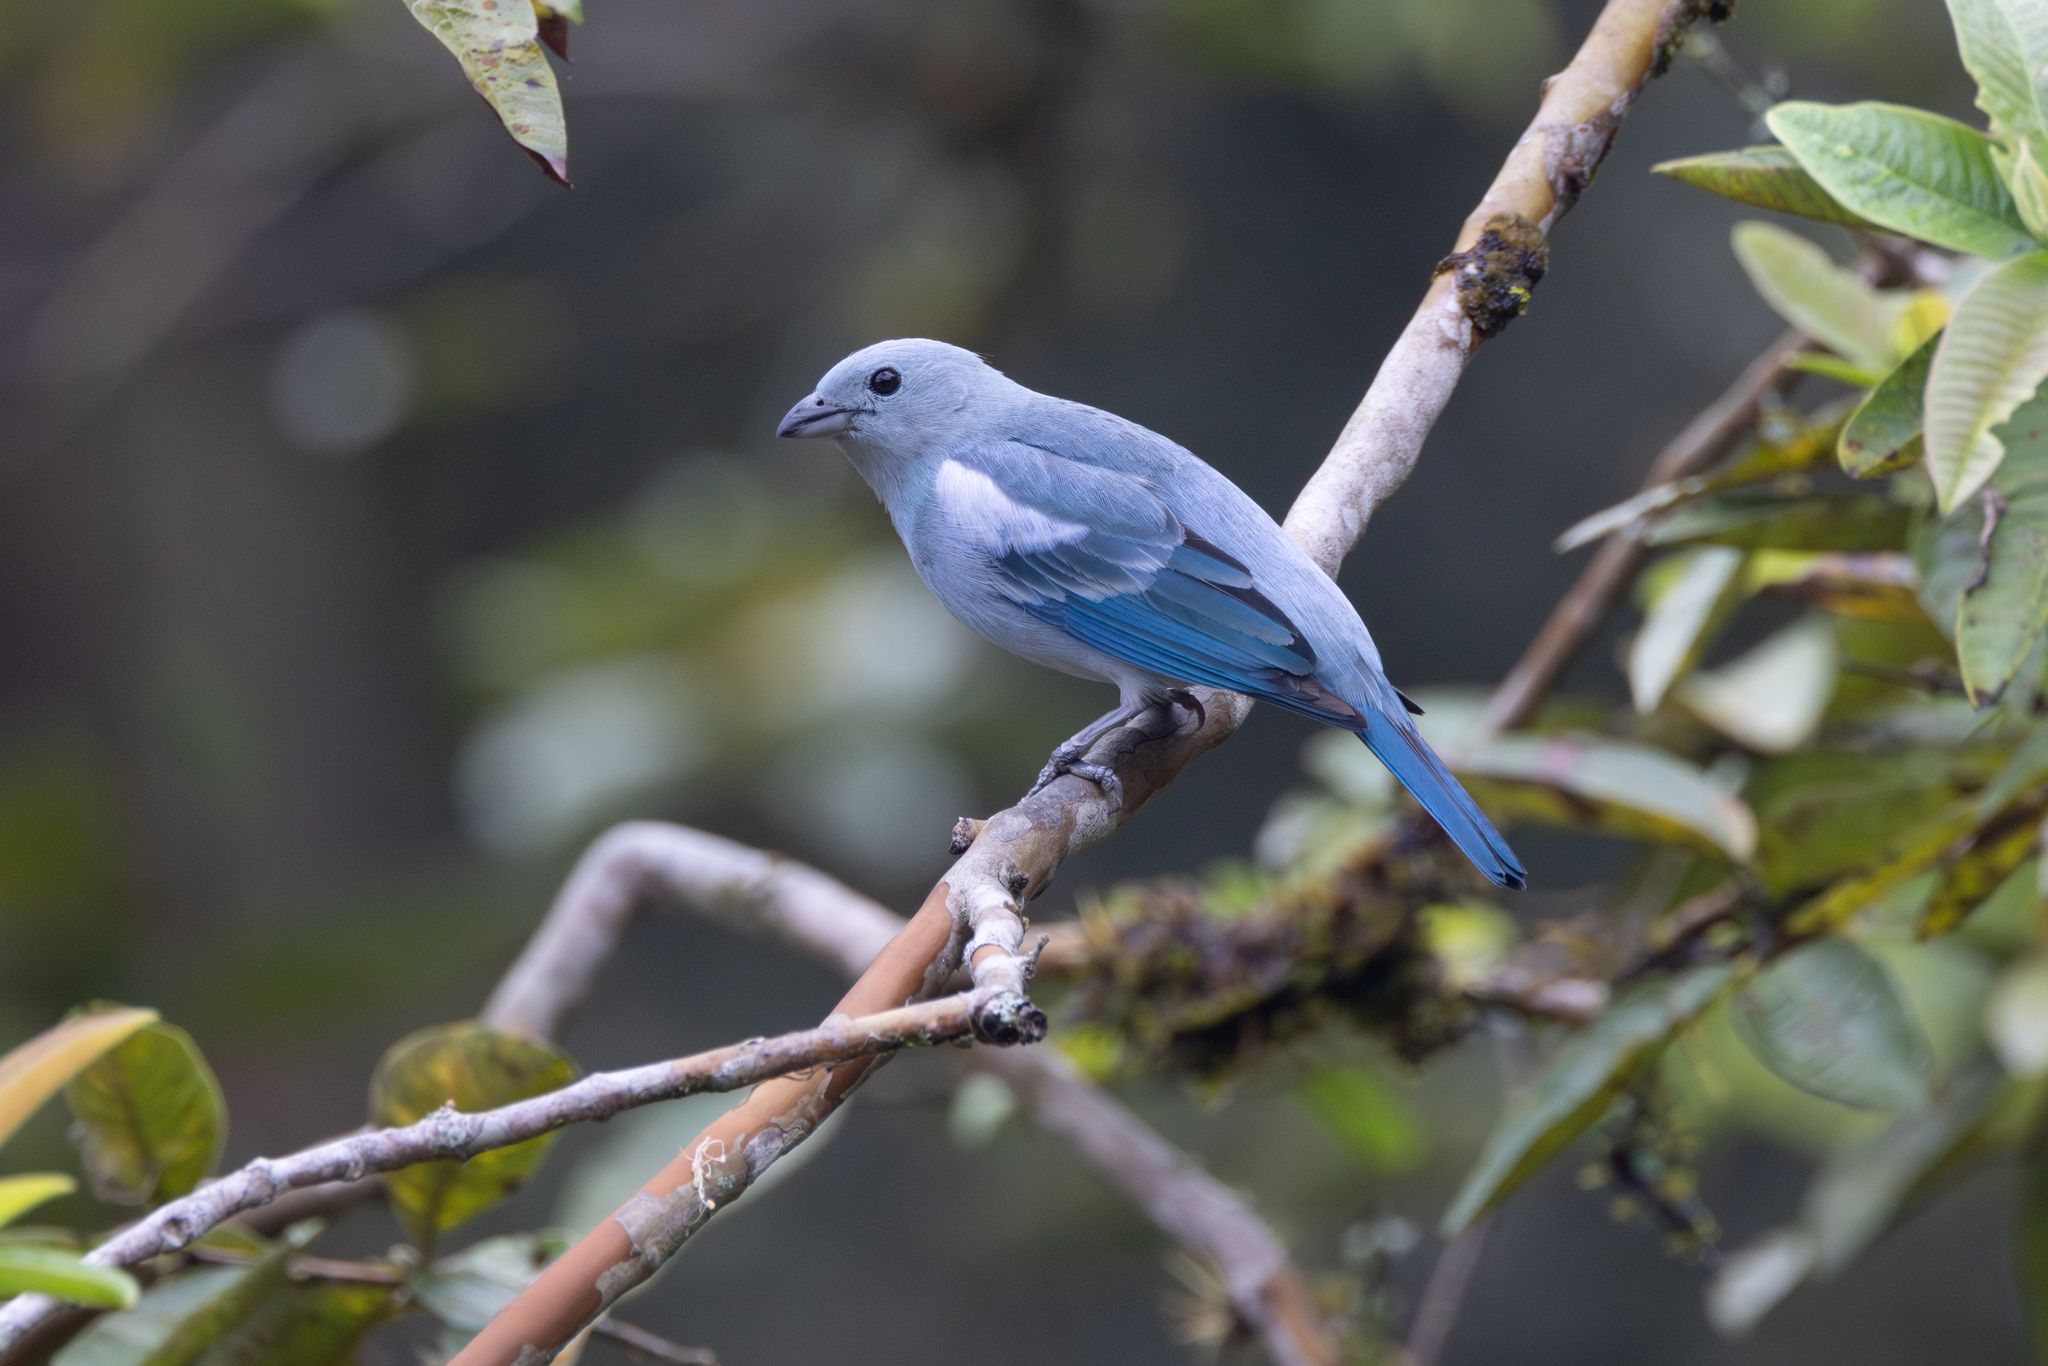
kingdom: Animalia
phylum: Chordata
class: Aves
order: Passeriformes
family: Thraupidae
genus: Thraupis
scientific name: Thraupis episcopus
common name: Blue-grey tanager
